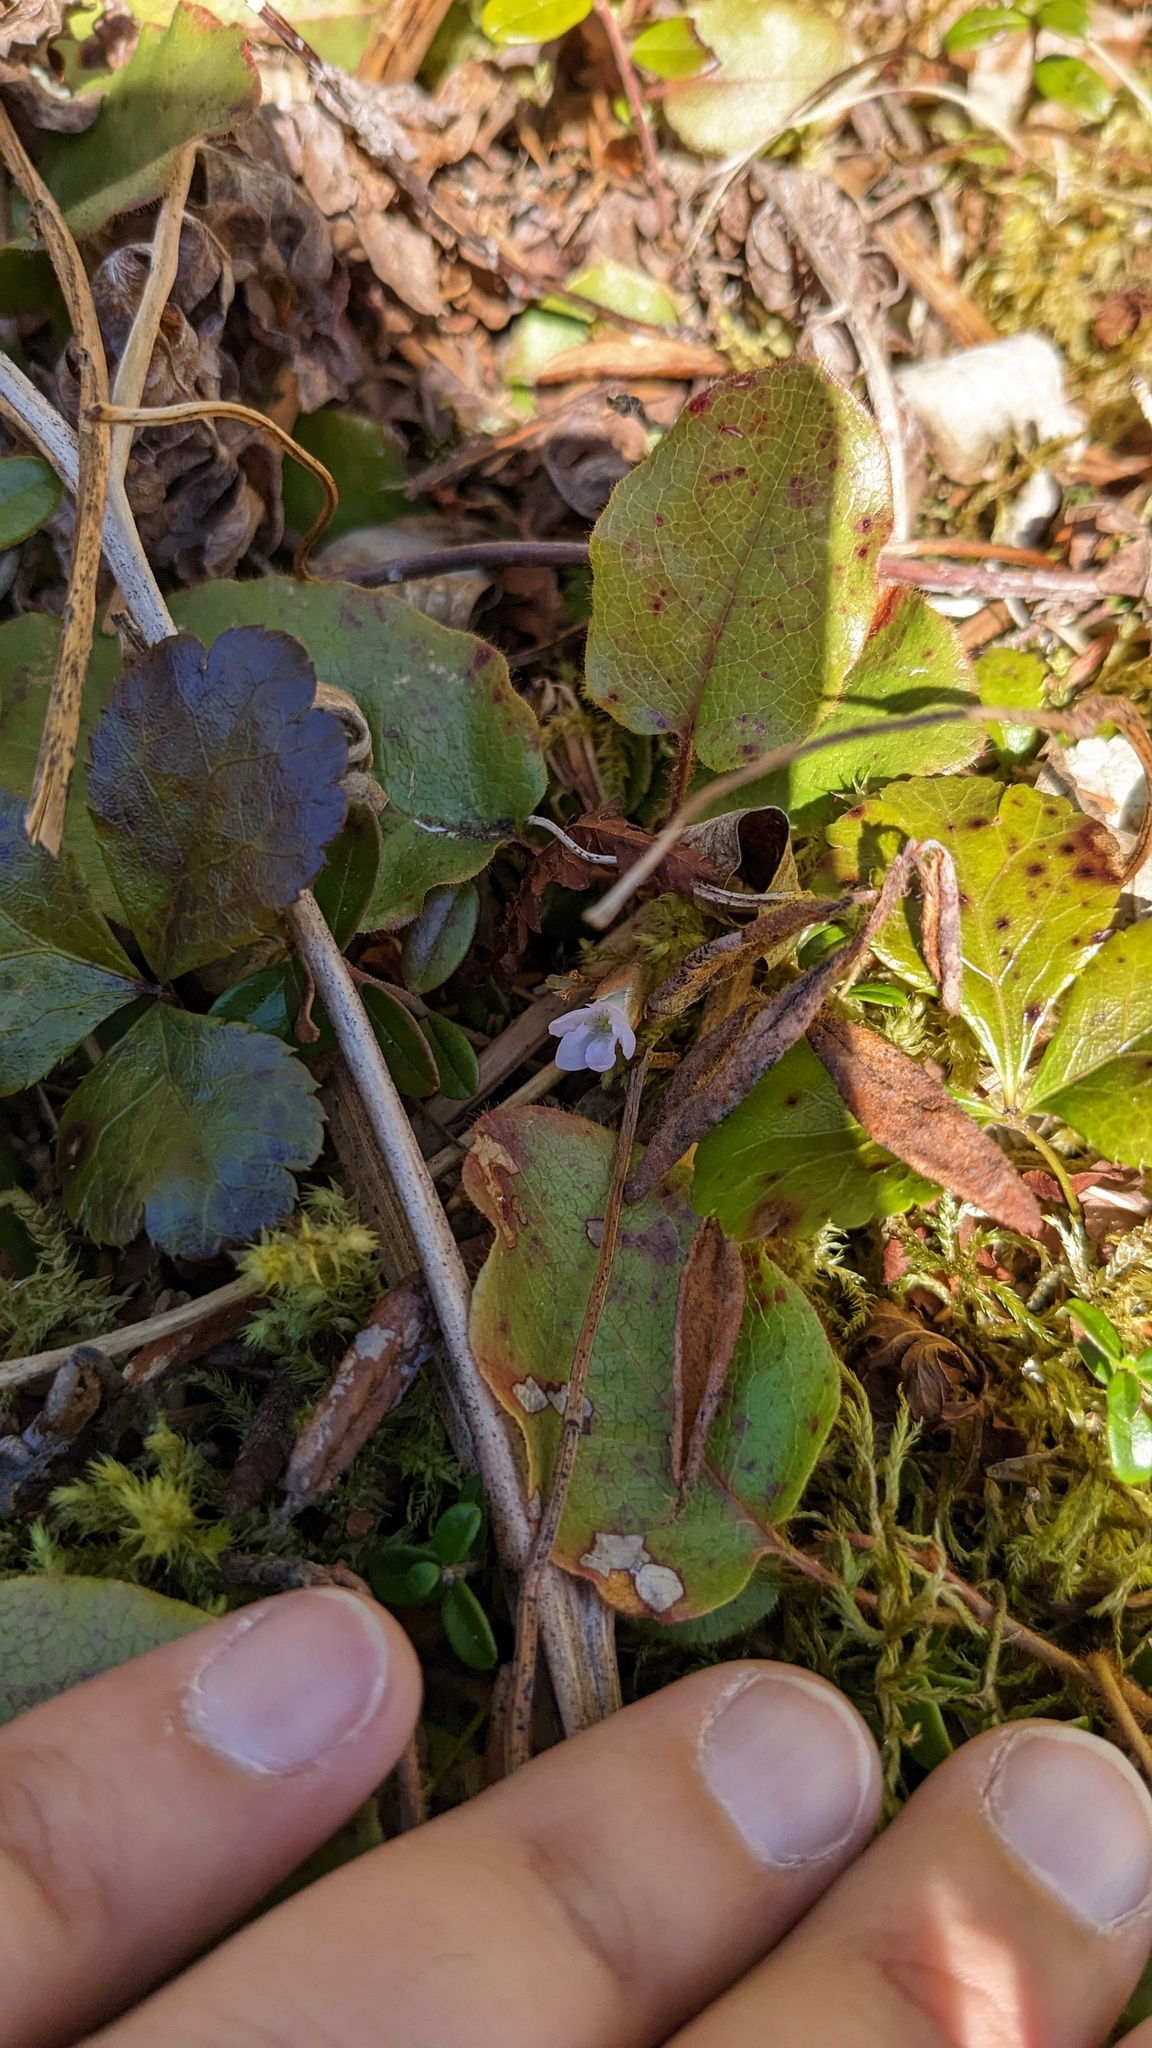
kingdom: Plantae
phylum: Tracheophyta
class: Magnoliopsida
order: Ericales
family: Ericaceae
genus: Epigaea
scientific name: Epigaea repens
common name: Gravelroot
